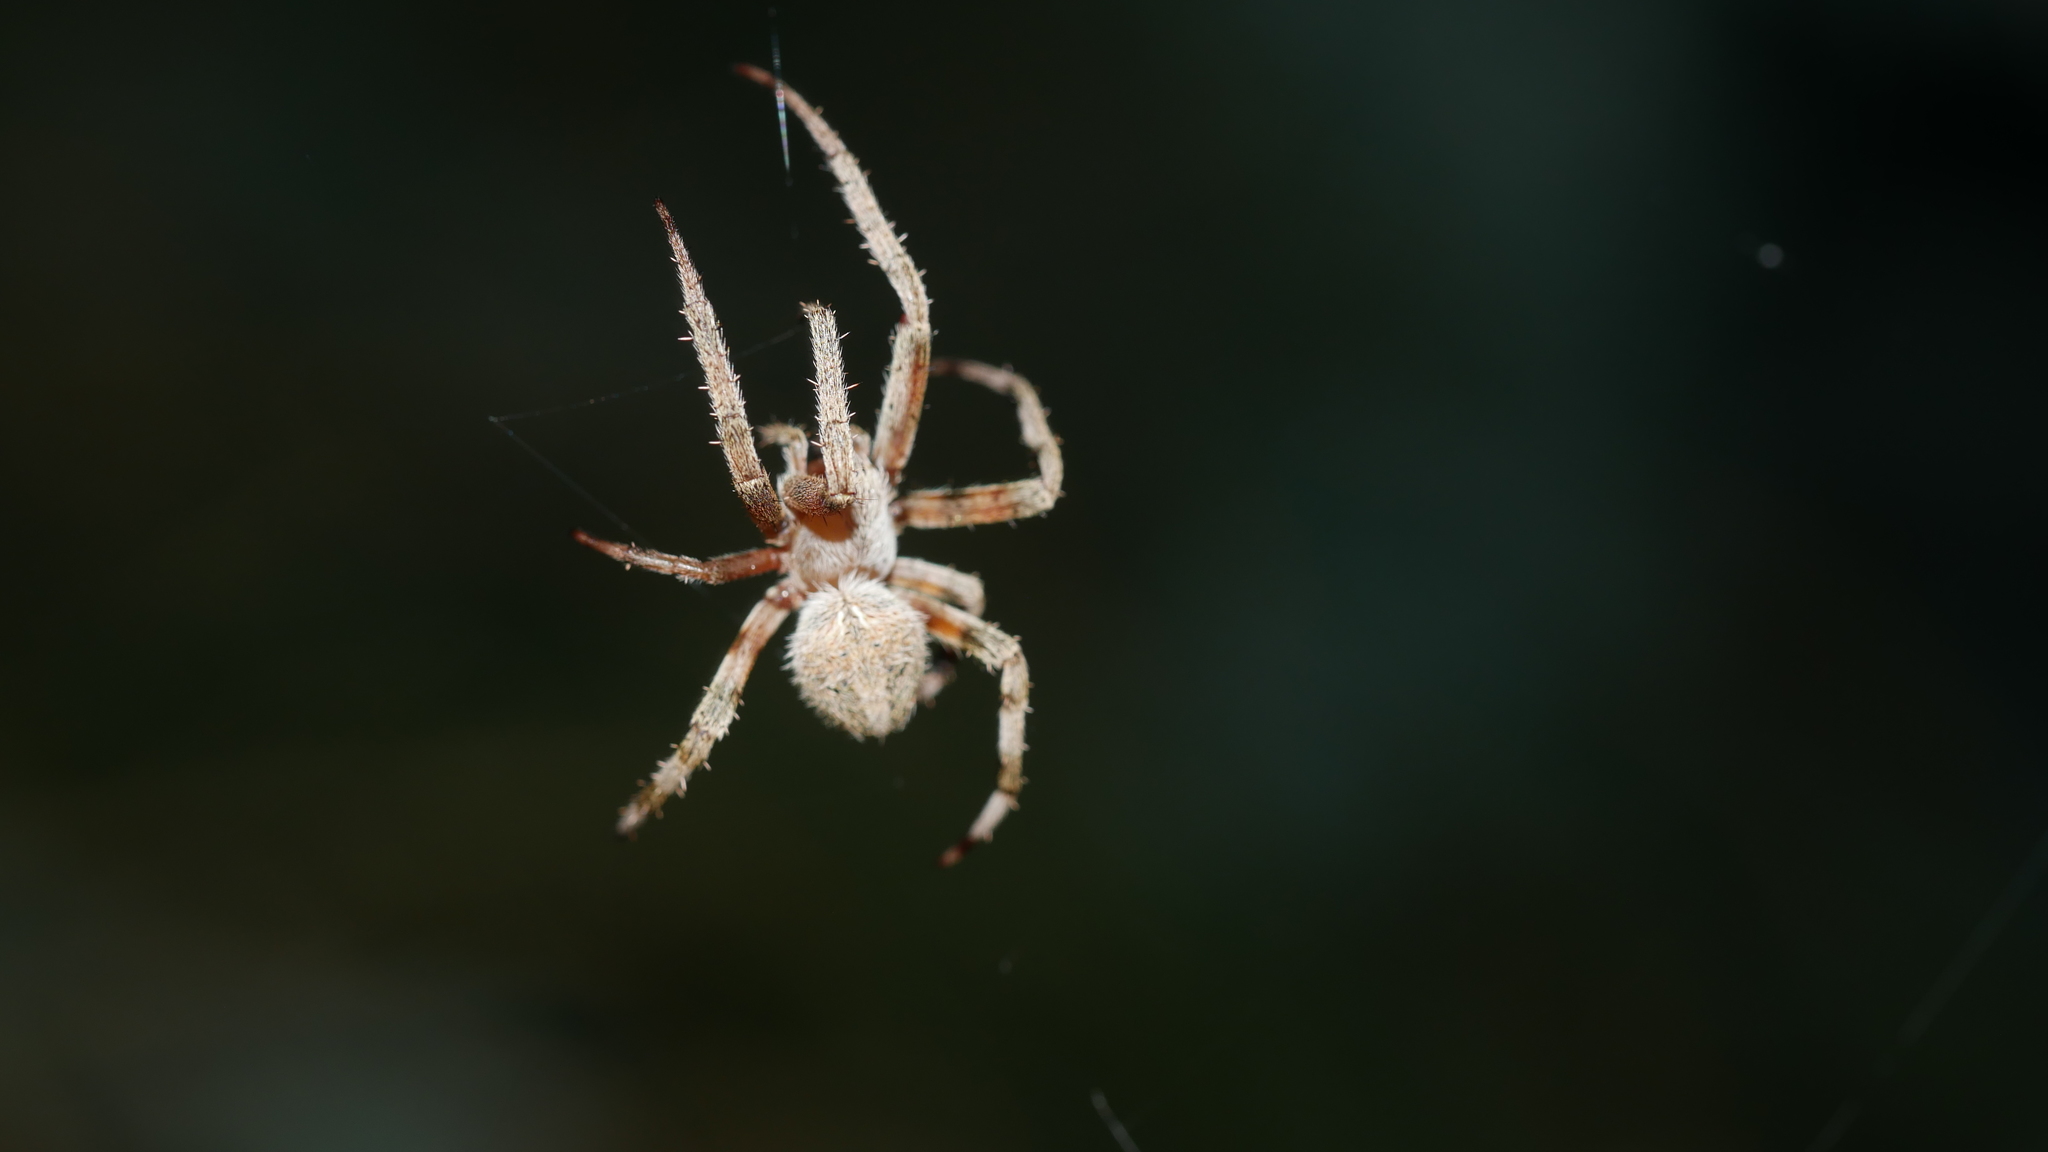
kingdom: Animalia
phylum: Arthropoda
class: Arachnida
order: Araneae
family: Araneidae
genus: Neoscona
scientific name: Neoscona crucifera
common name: Spotted orbweaver
